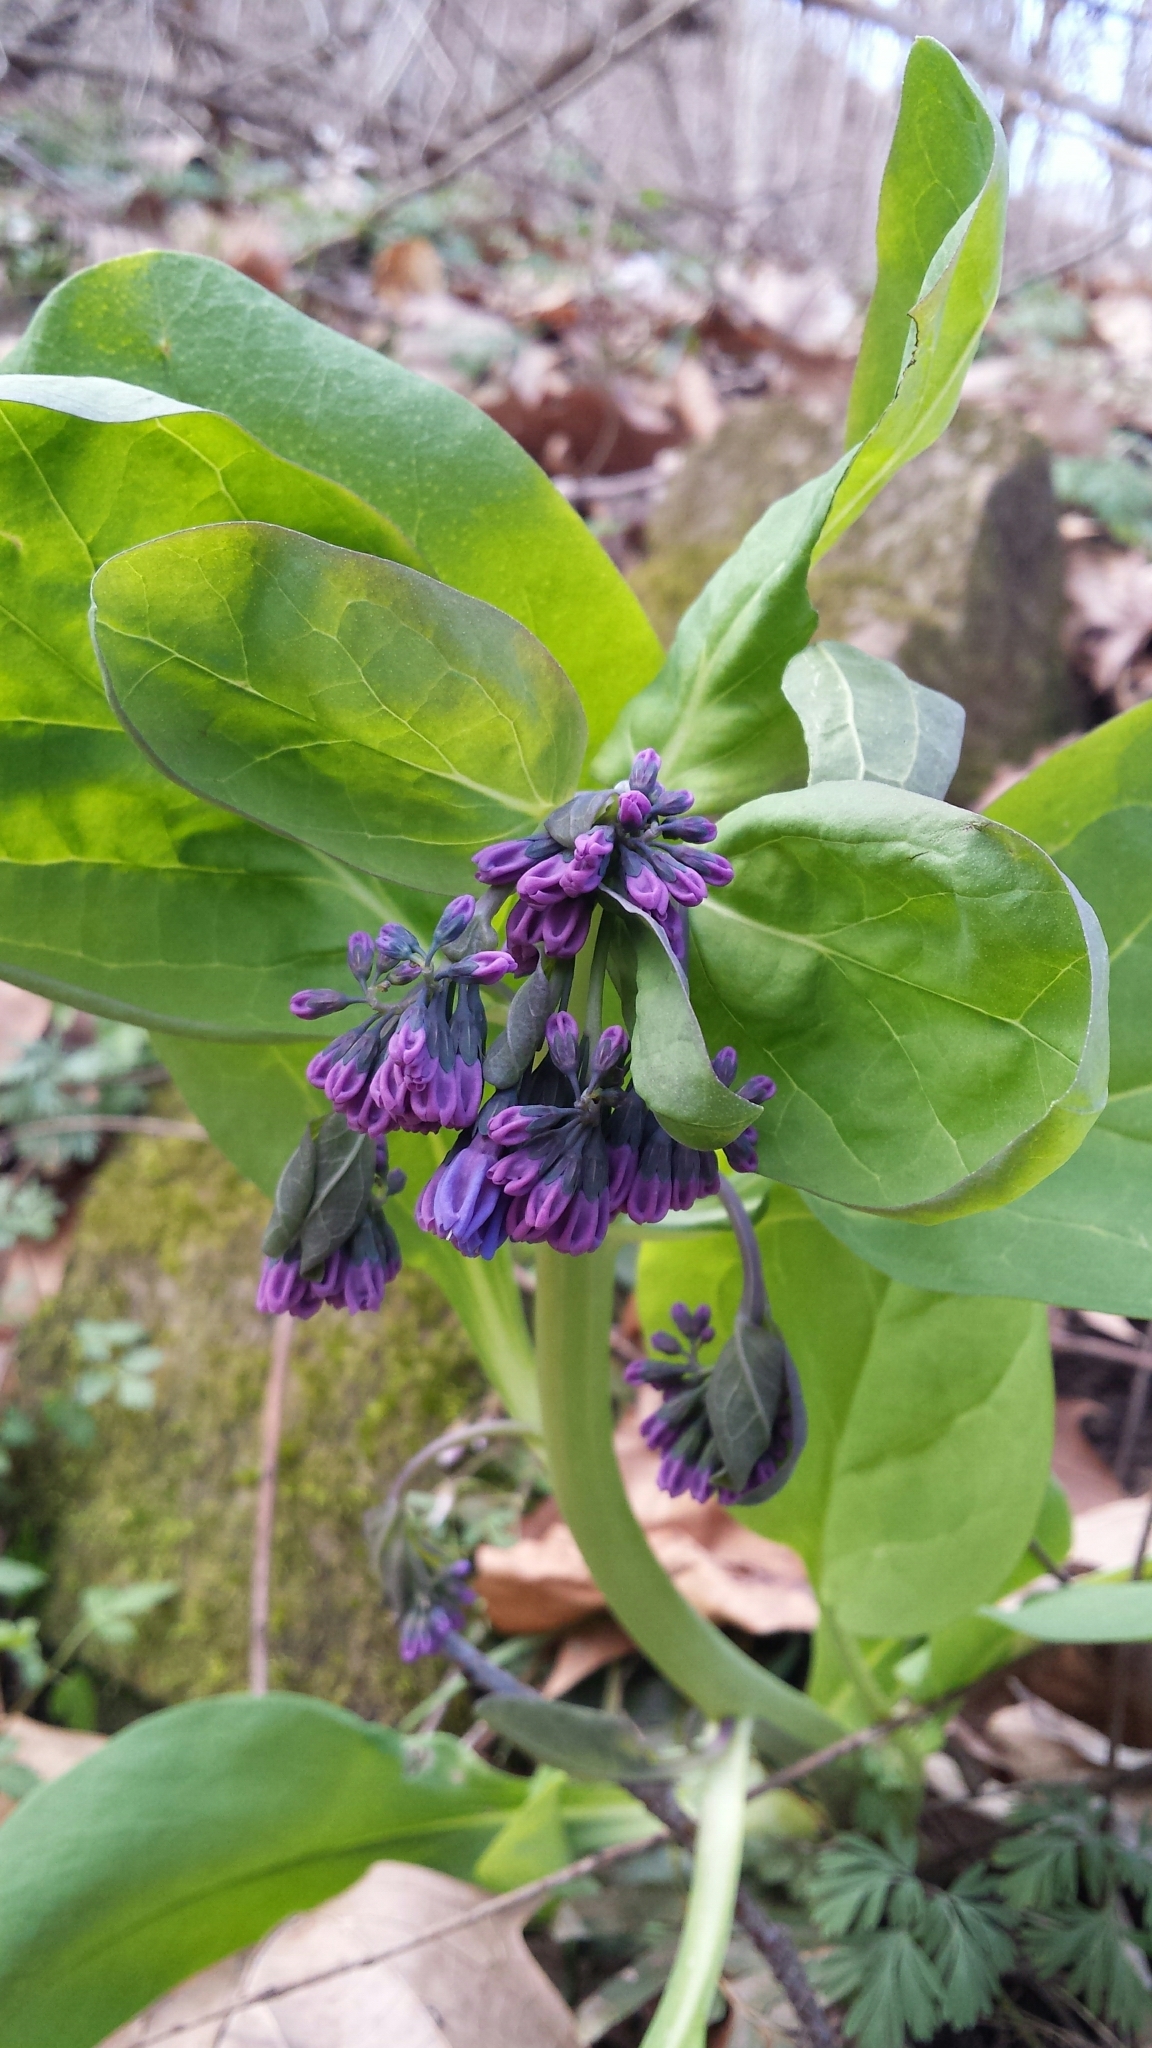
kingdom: Plantae
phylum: Tracheophyta
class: Magnoliopsida
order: Boraginales
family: Boraginaceae
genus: Mertensia
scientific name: Mertensia virginica
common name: Virginia bluebells
